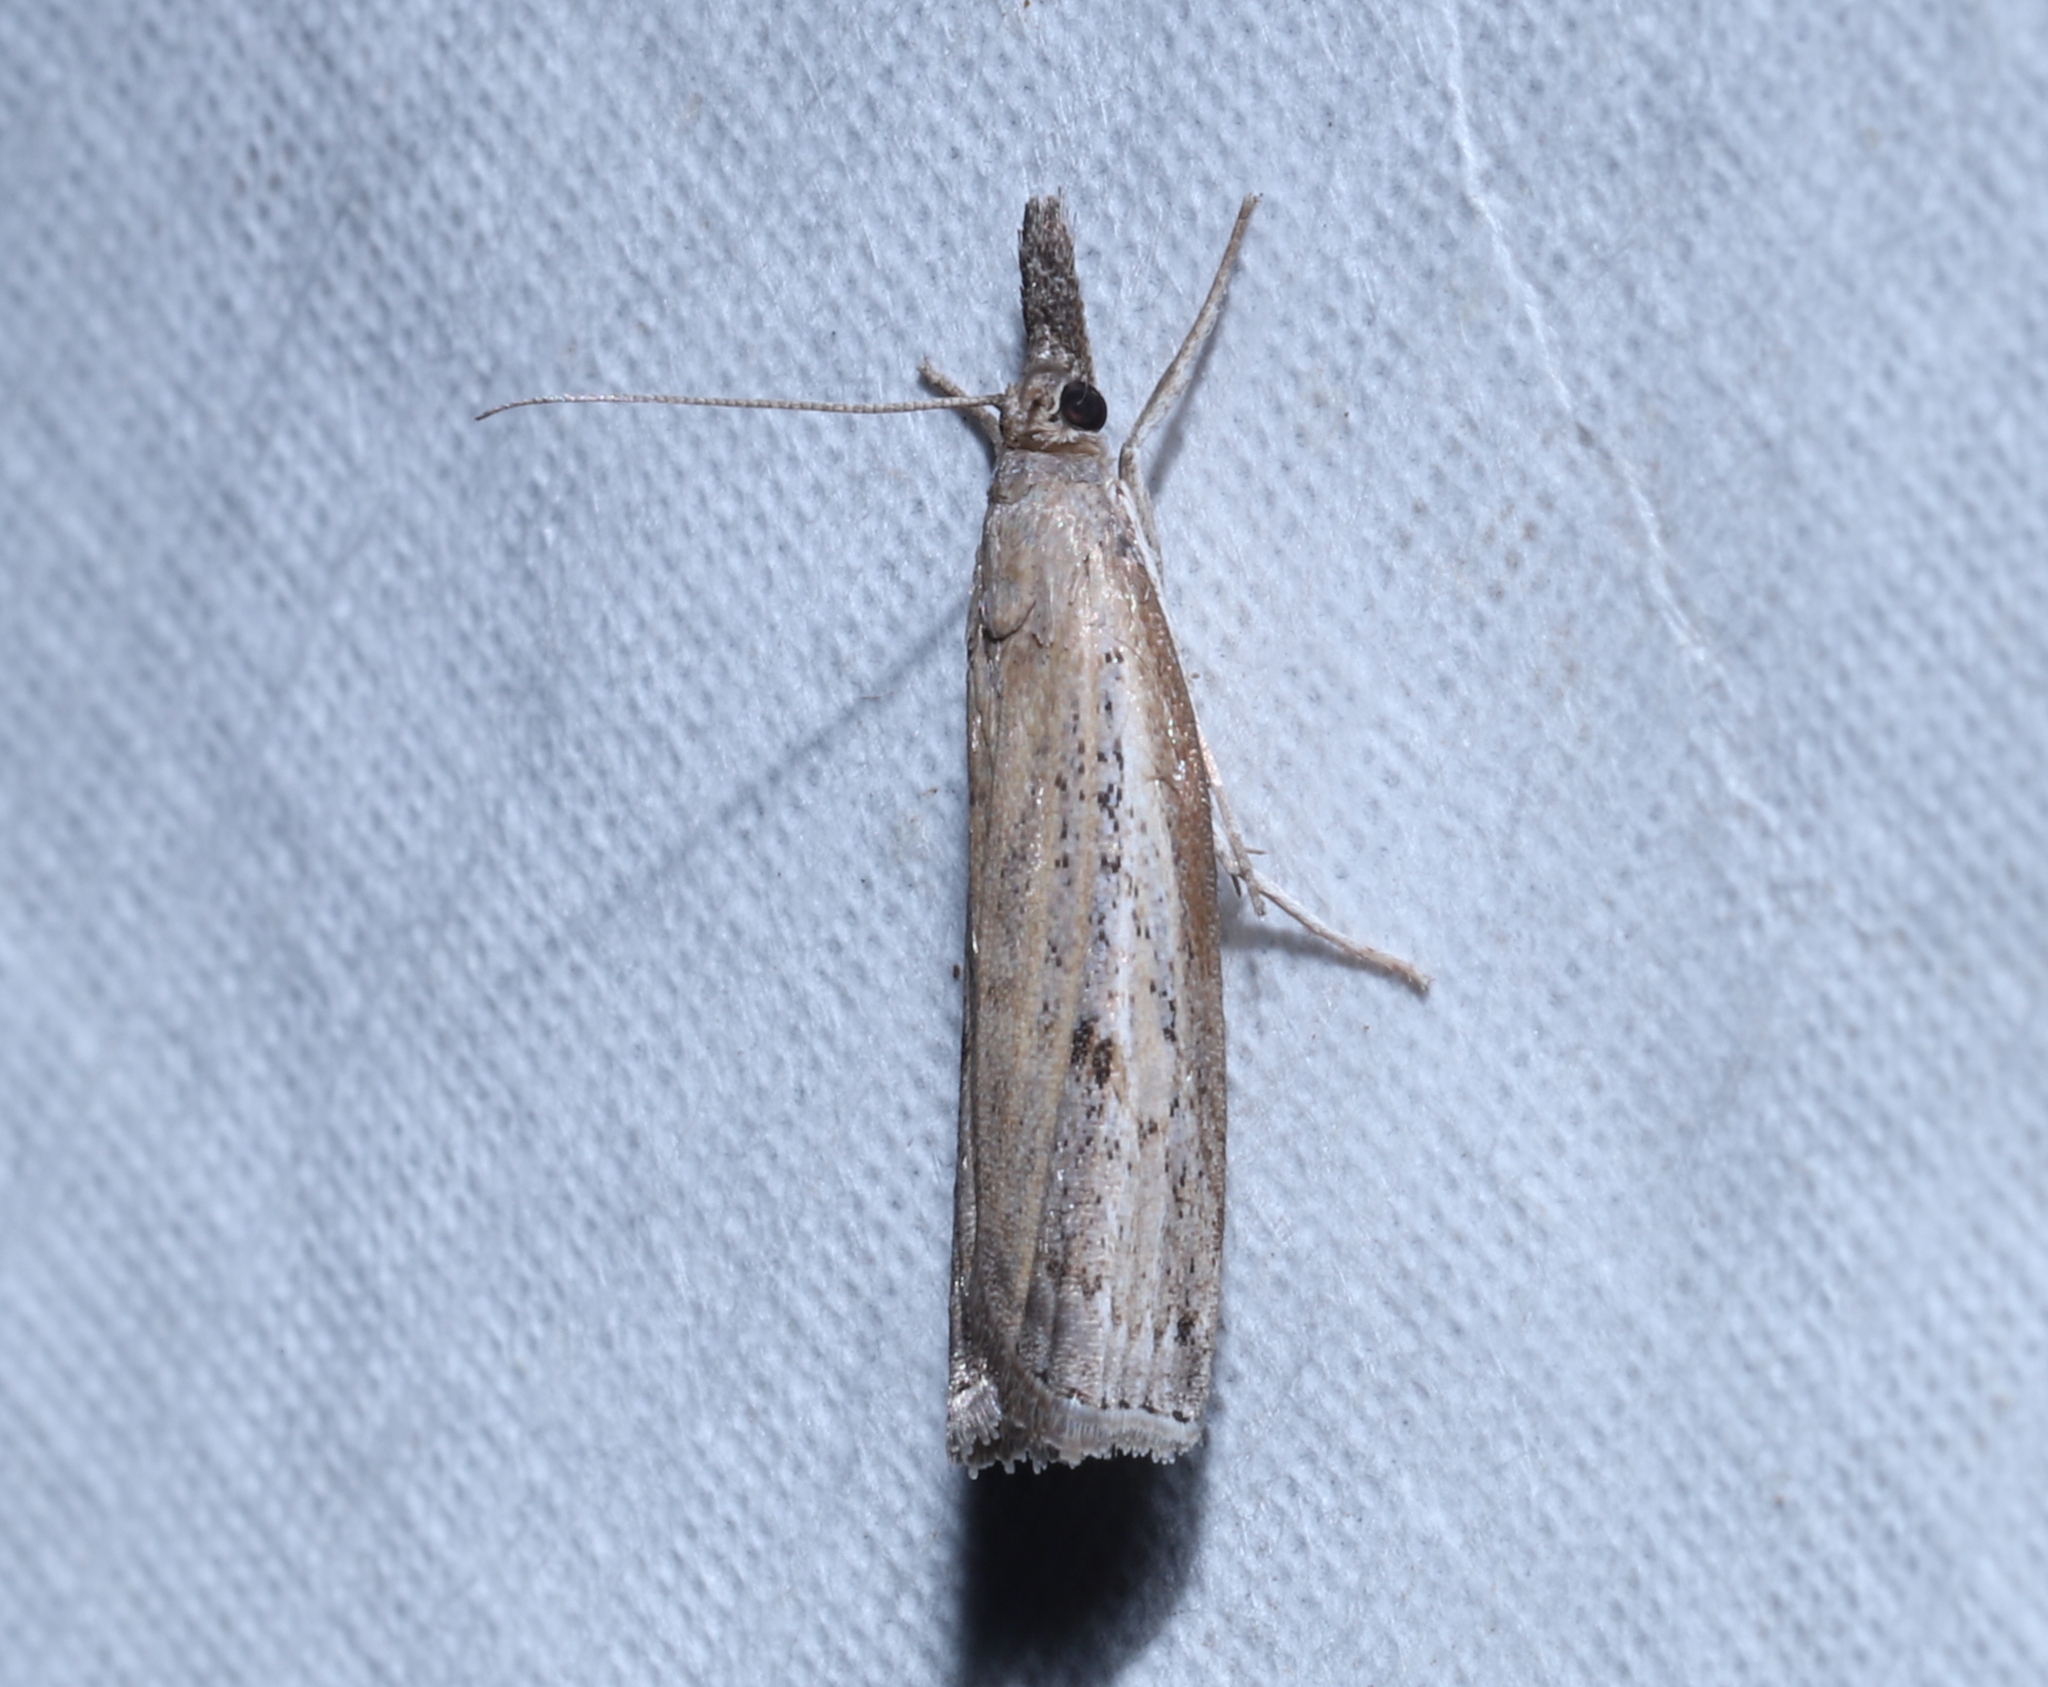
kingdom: Animalia
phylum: Arthropoda
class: Insecta
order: Lepidoptera
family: Crambidae
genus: Fissicrambus
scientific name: Fissicrambus mutabilis
